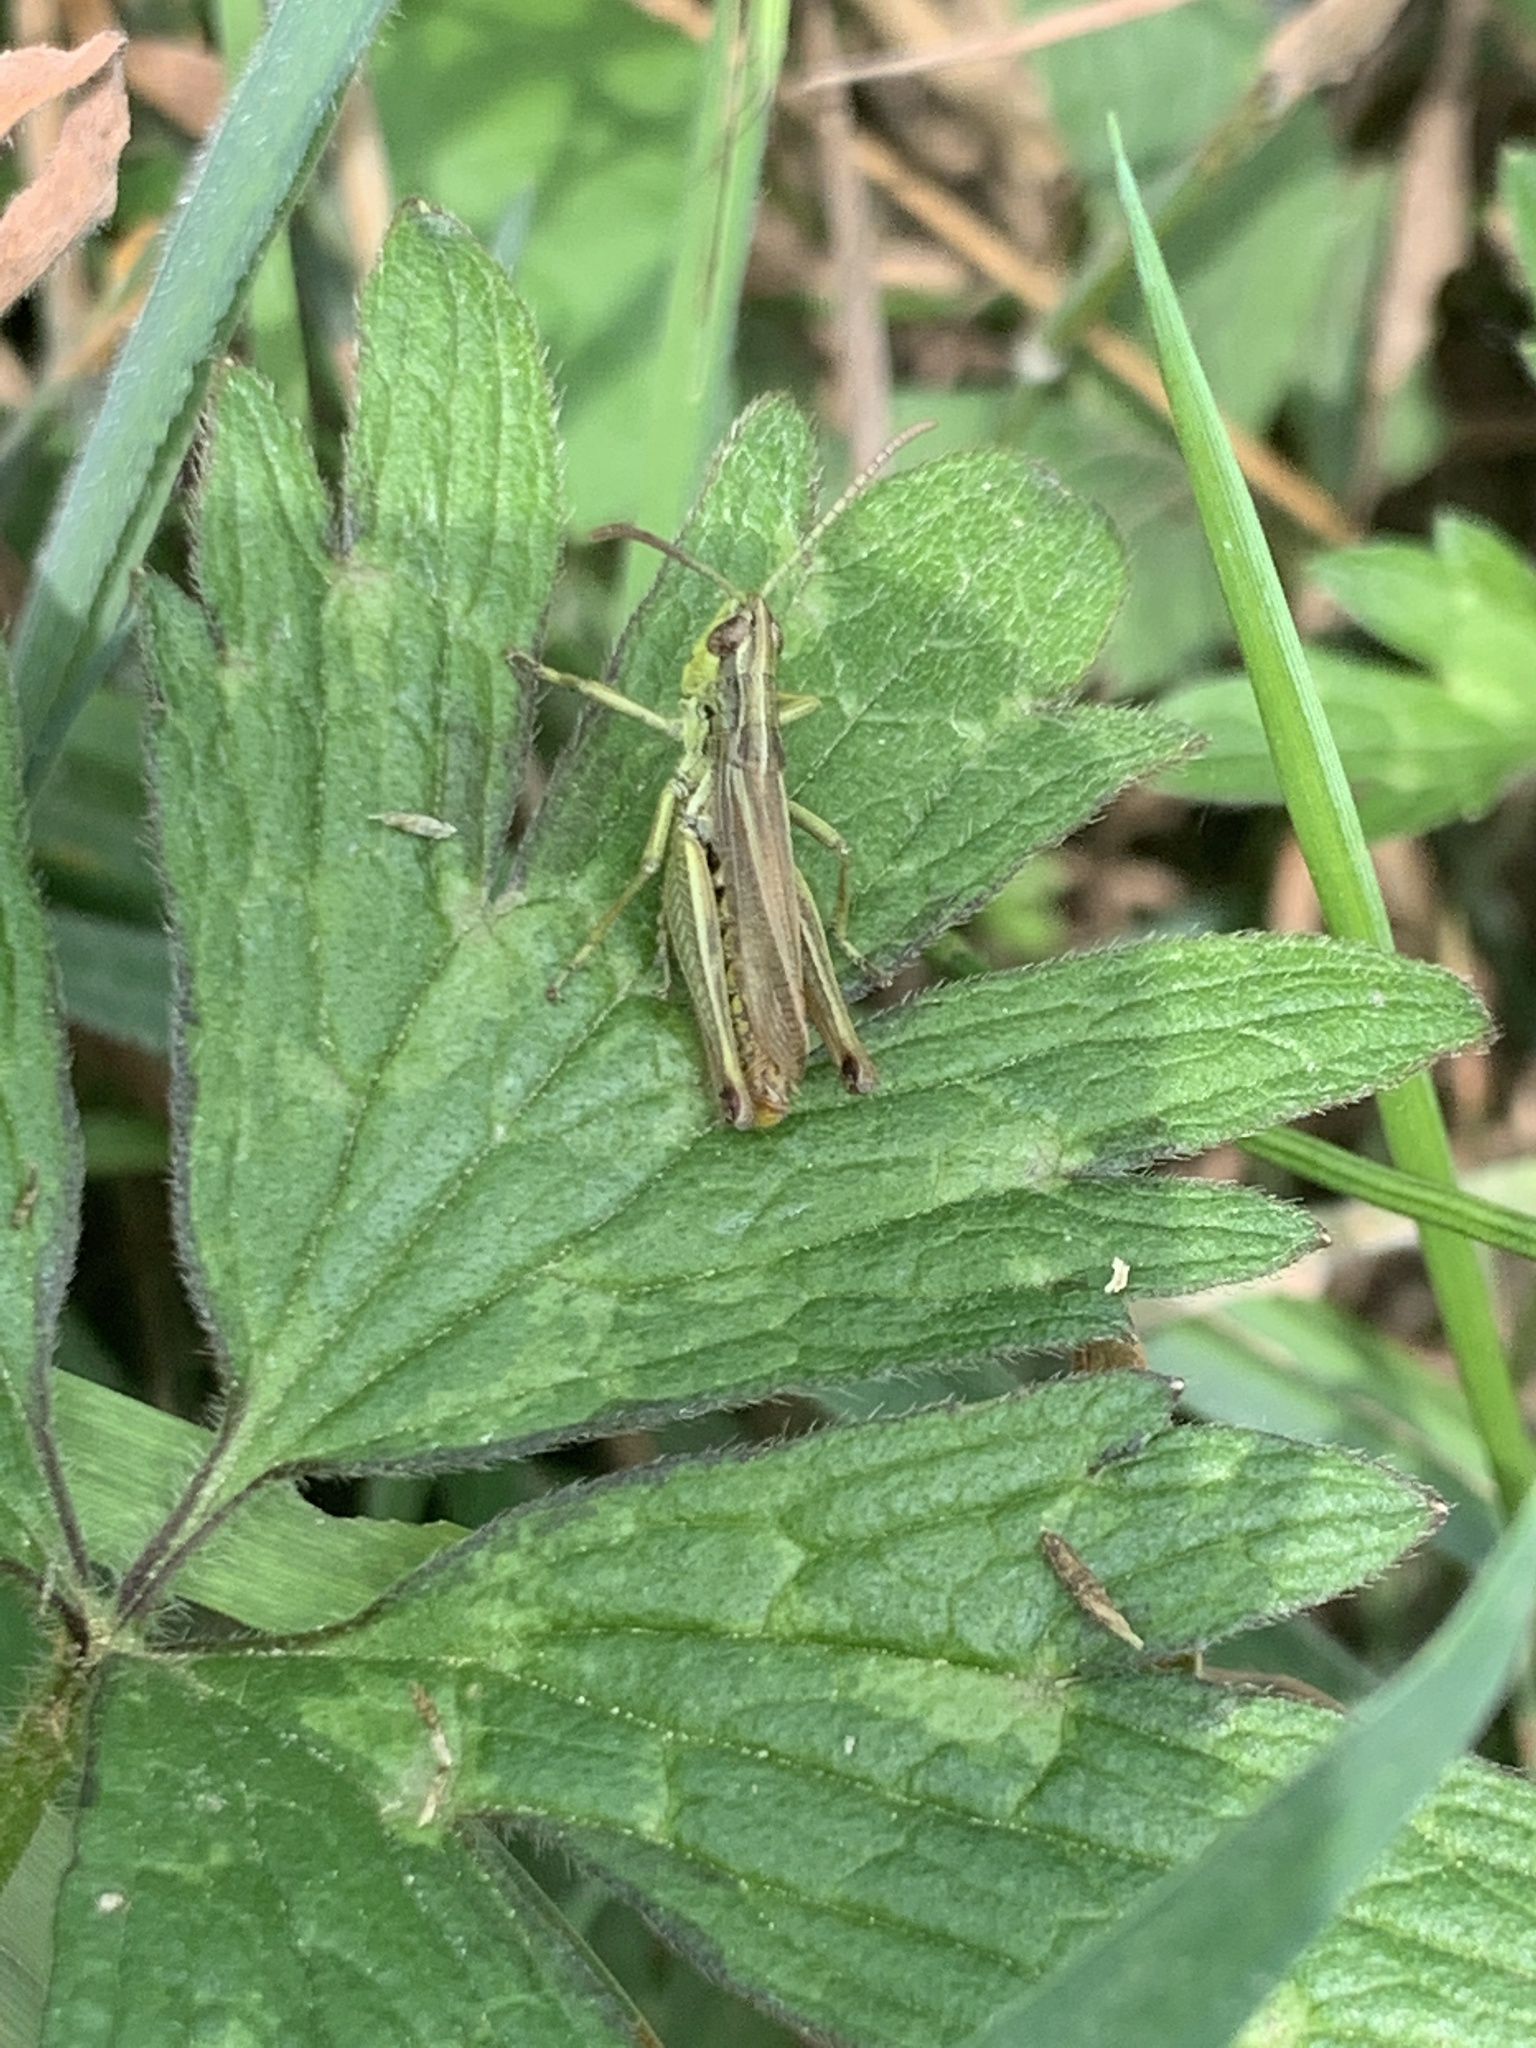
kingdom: Animalia
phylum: Arthropoda
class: Insecta
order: Orthoptera
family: Acrididae
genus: Pseudochorthippus
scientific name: Pseudochorthippus parallelus
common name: Meadow grasshopper
